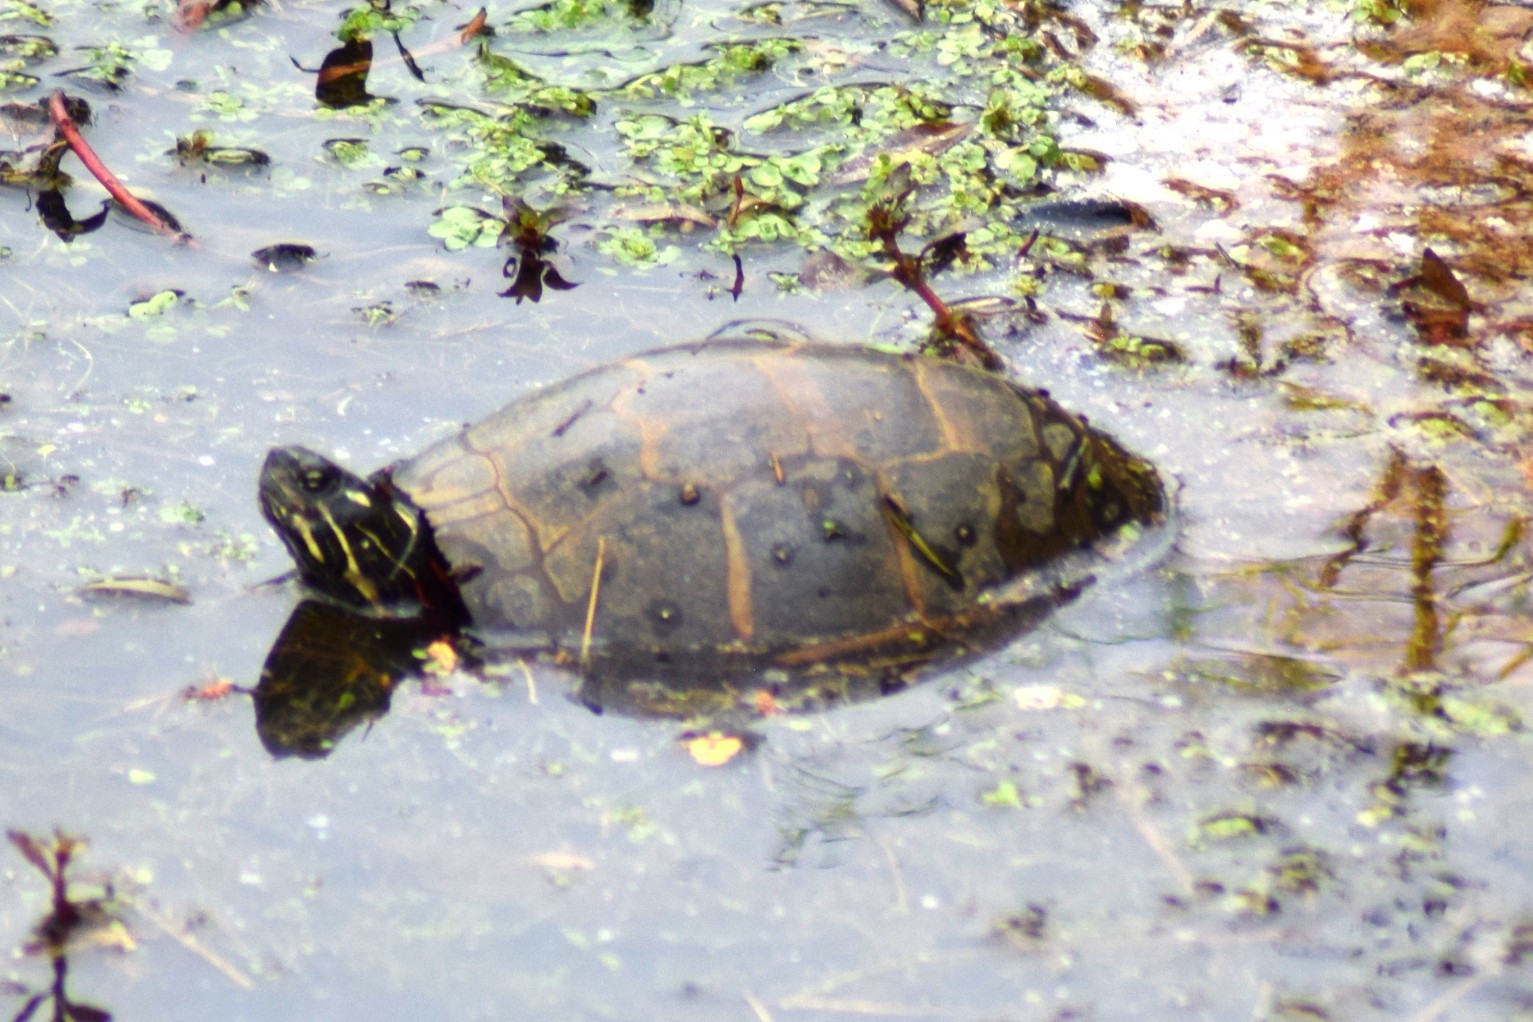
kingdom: Animalia
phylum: Chordata
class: Testudines
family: Emydidae
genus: Chrysemys
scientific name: Chrysemys picta
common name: Painted turtle
